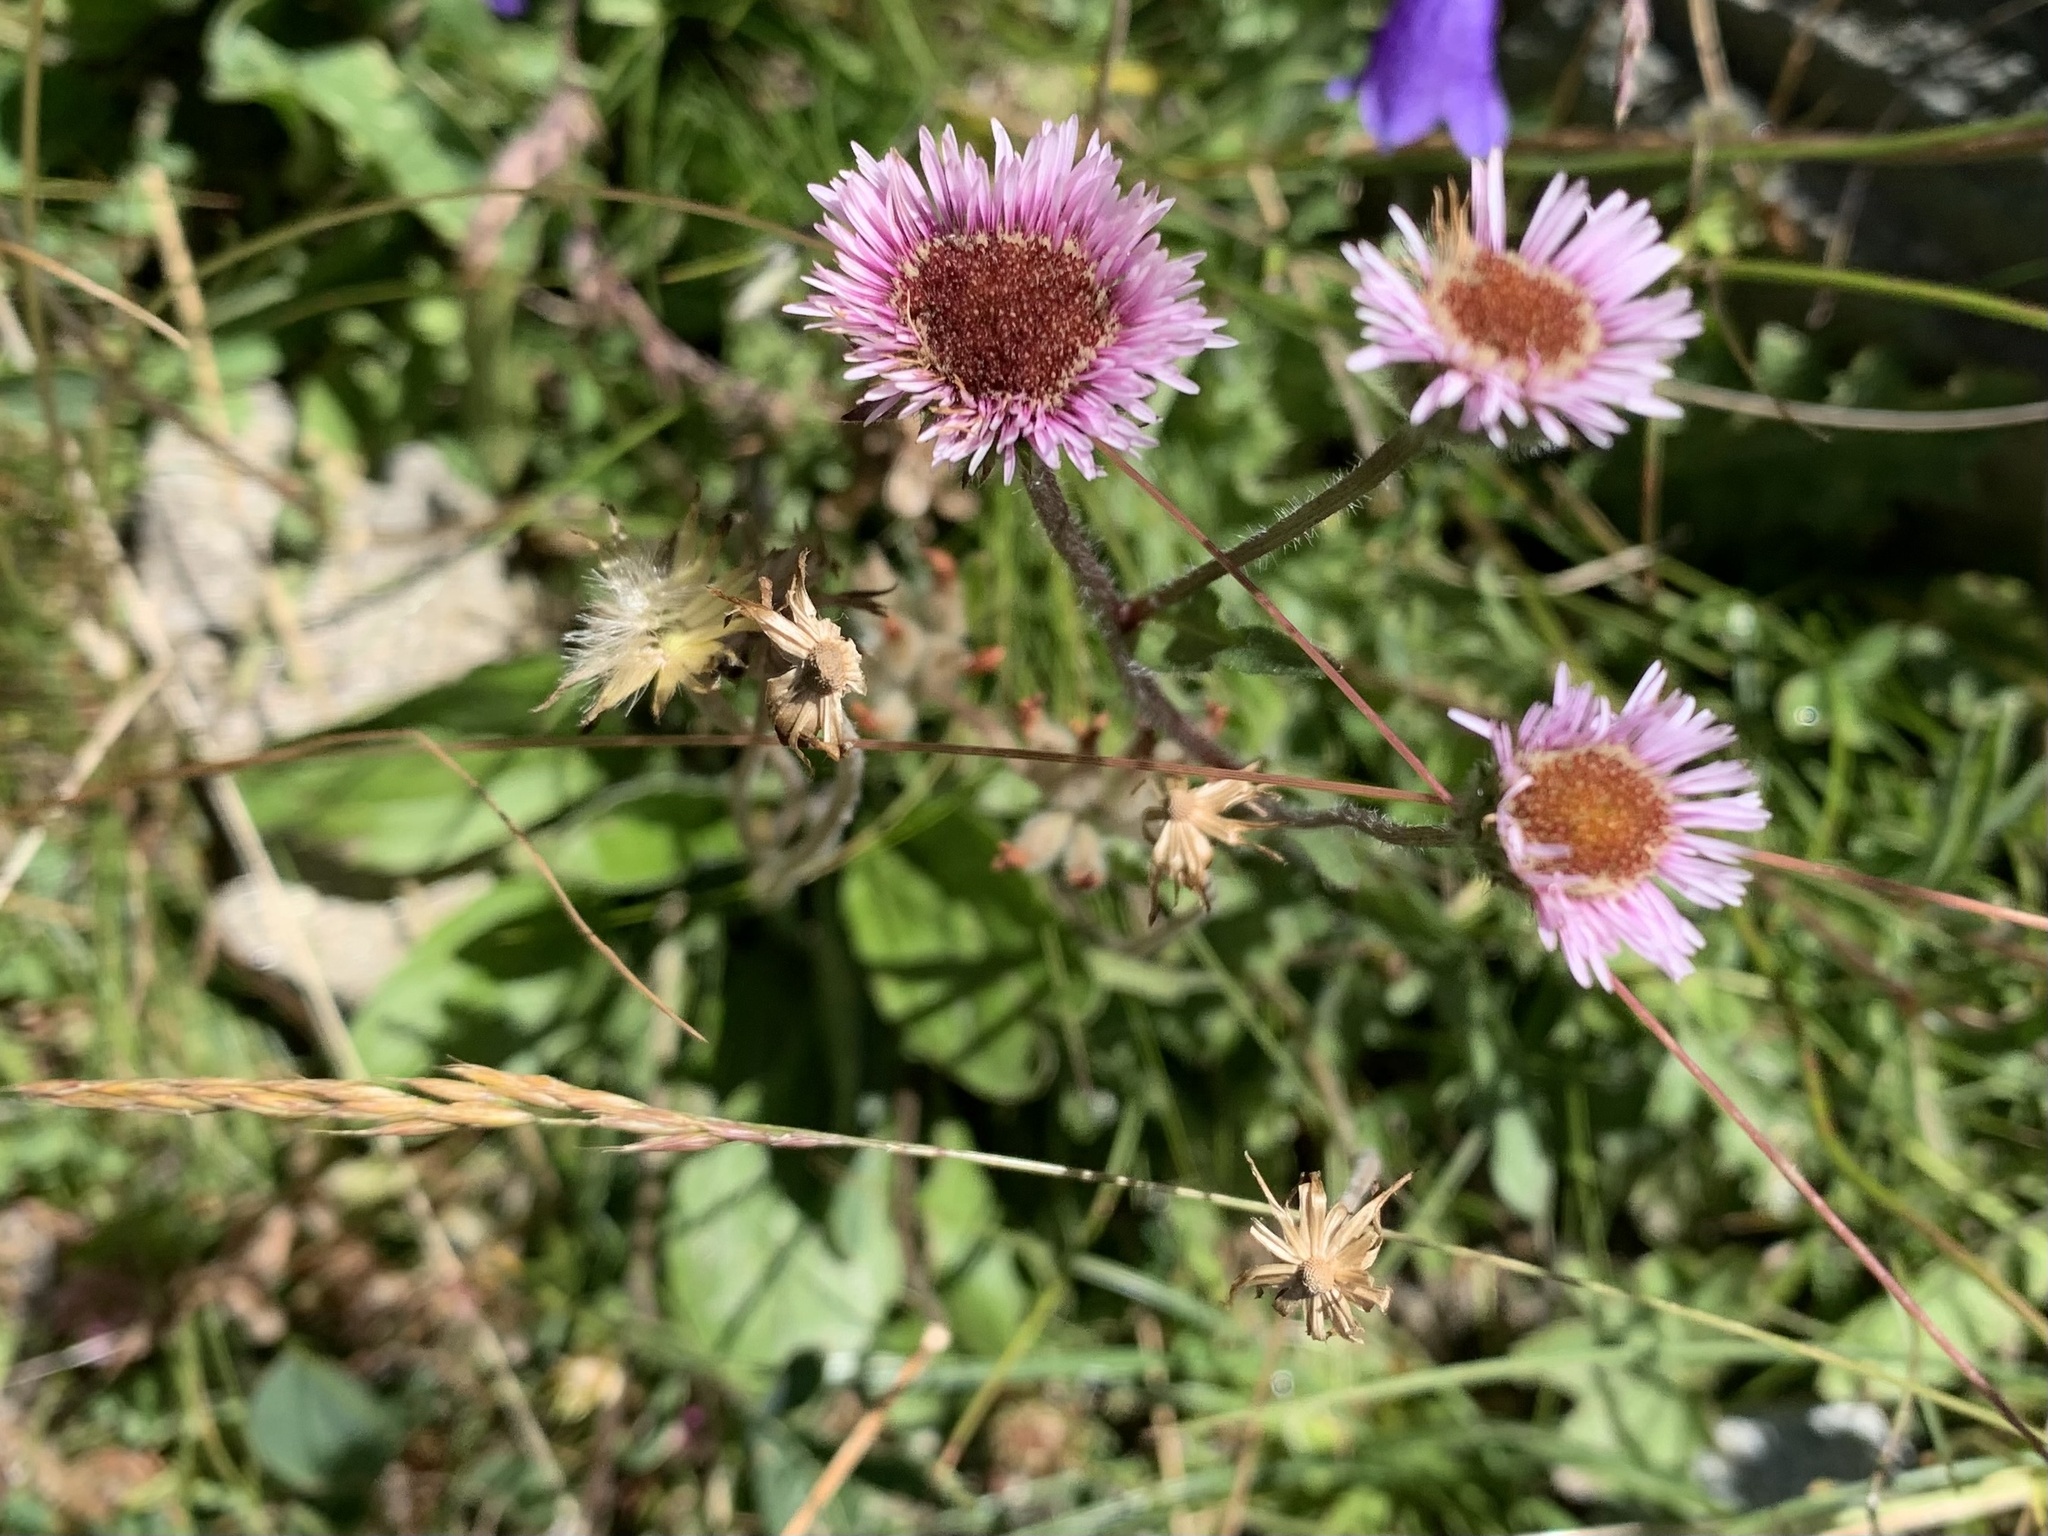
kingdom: Plantae
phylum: Tracheophyta
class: Magnoliopsida
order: Asterales
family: Asteraceae
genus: Erigeron
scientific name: Erigeron alpinus
